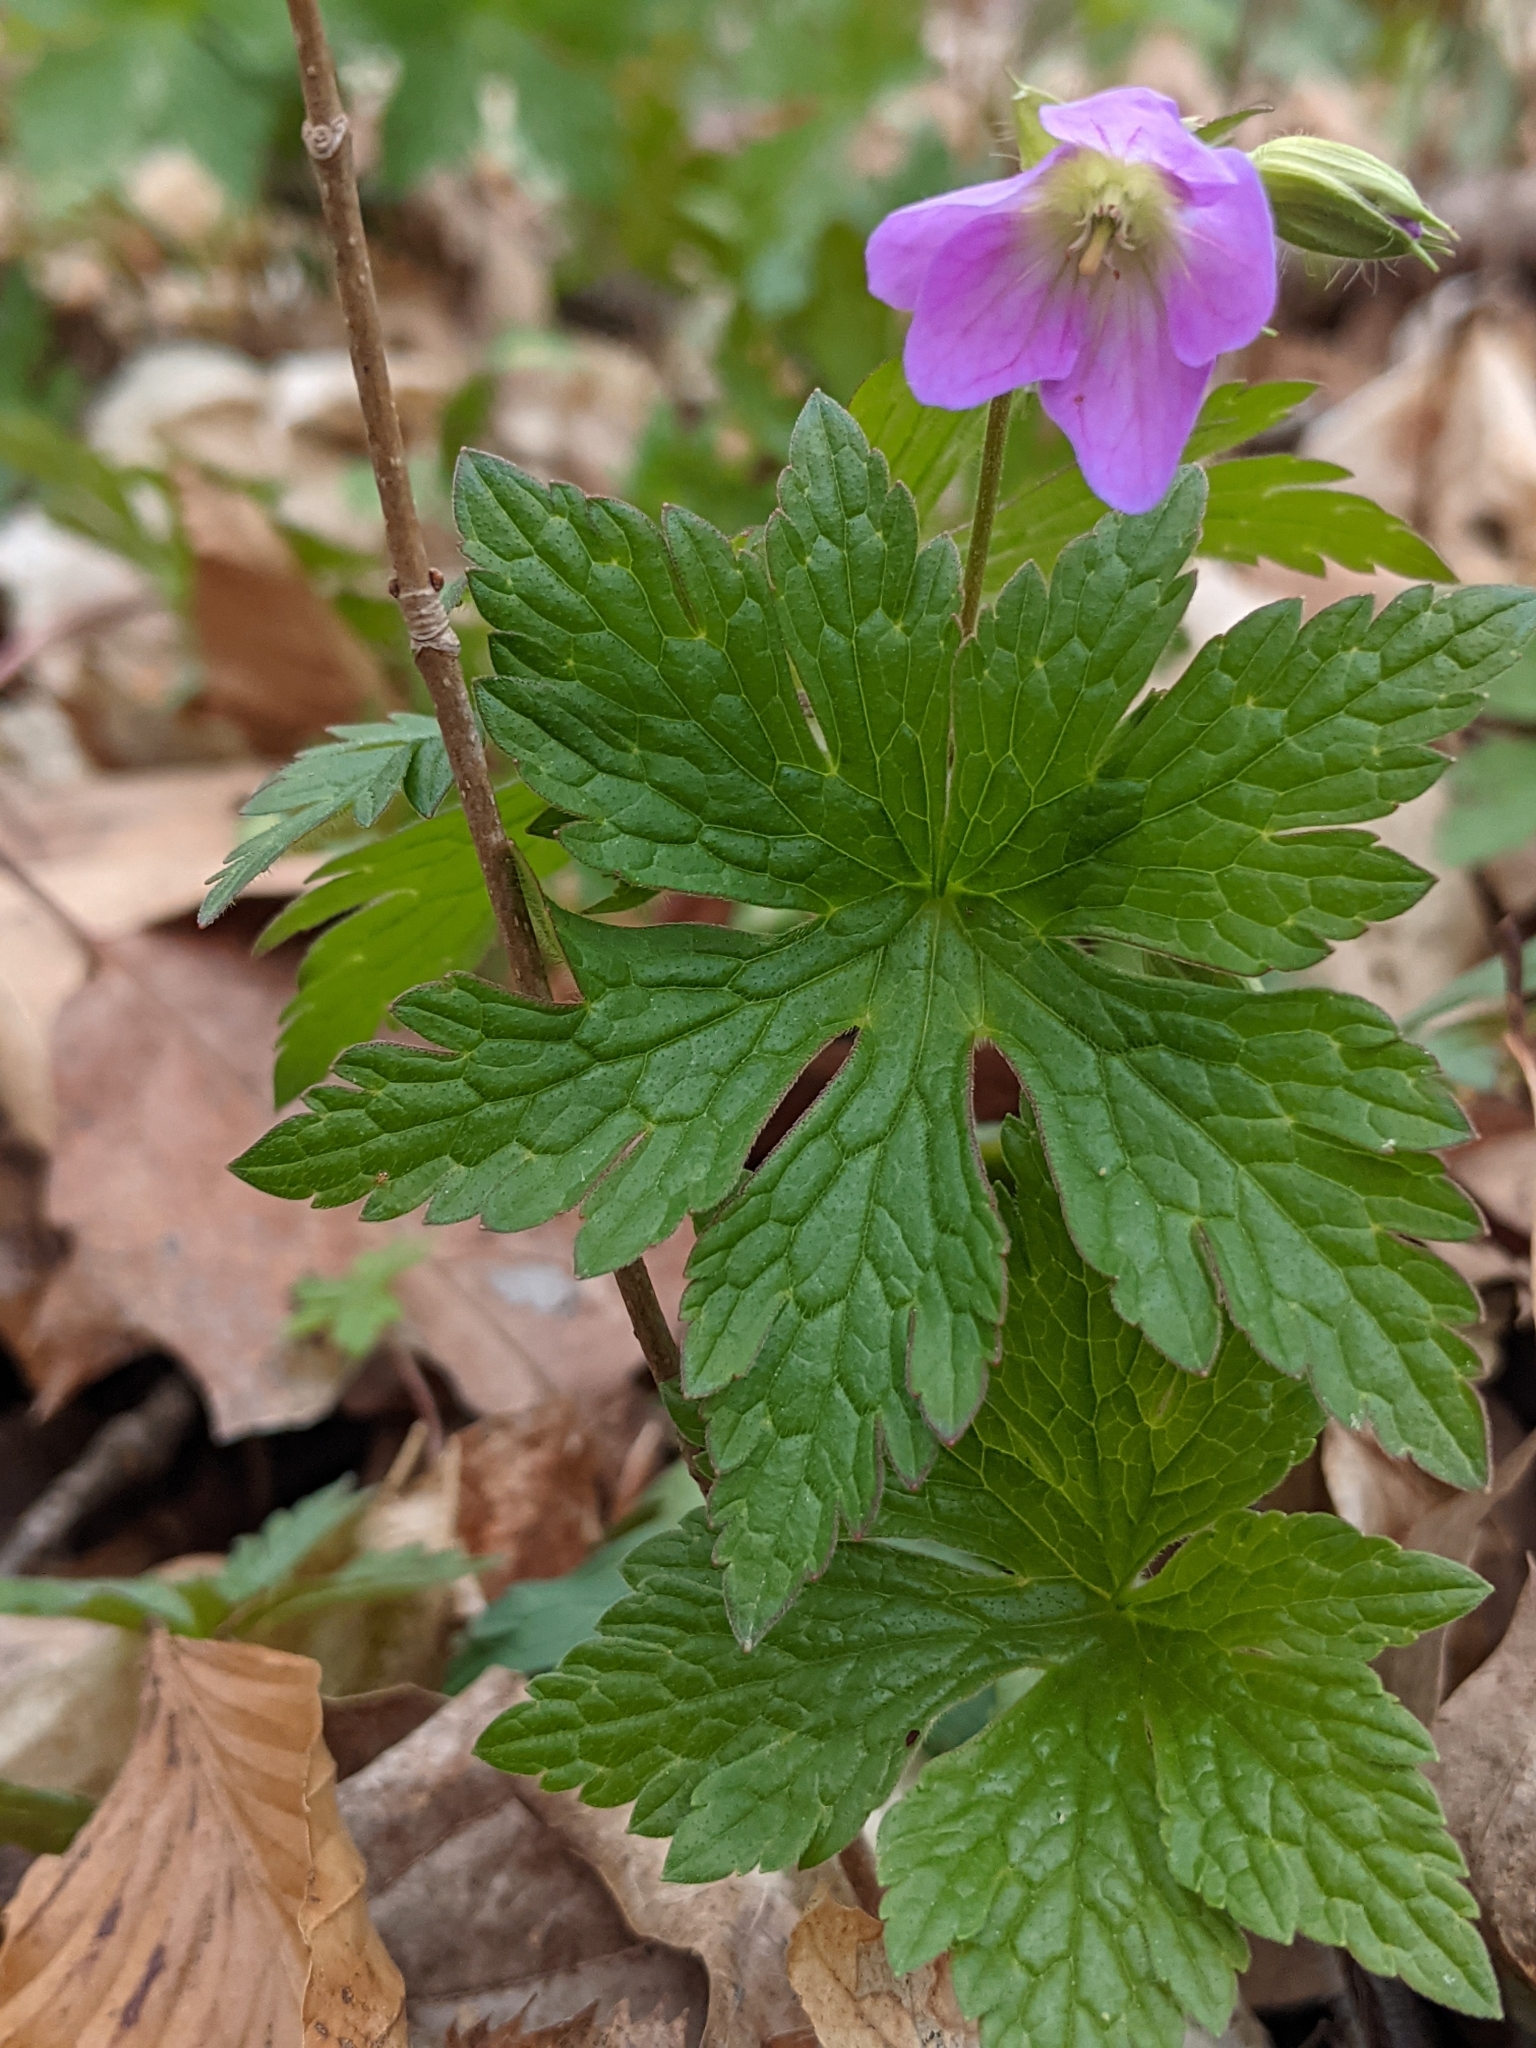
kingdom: Plantae
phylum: Tracheophyta
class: Magnoliopsida
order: Geraniales
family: Geraniaceae
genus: Geranium
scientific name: Geranium maculatum
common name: Spotted geranium
